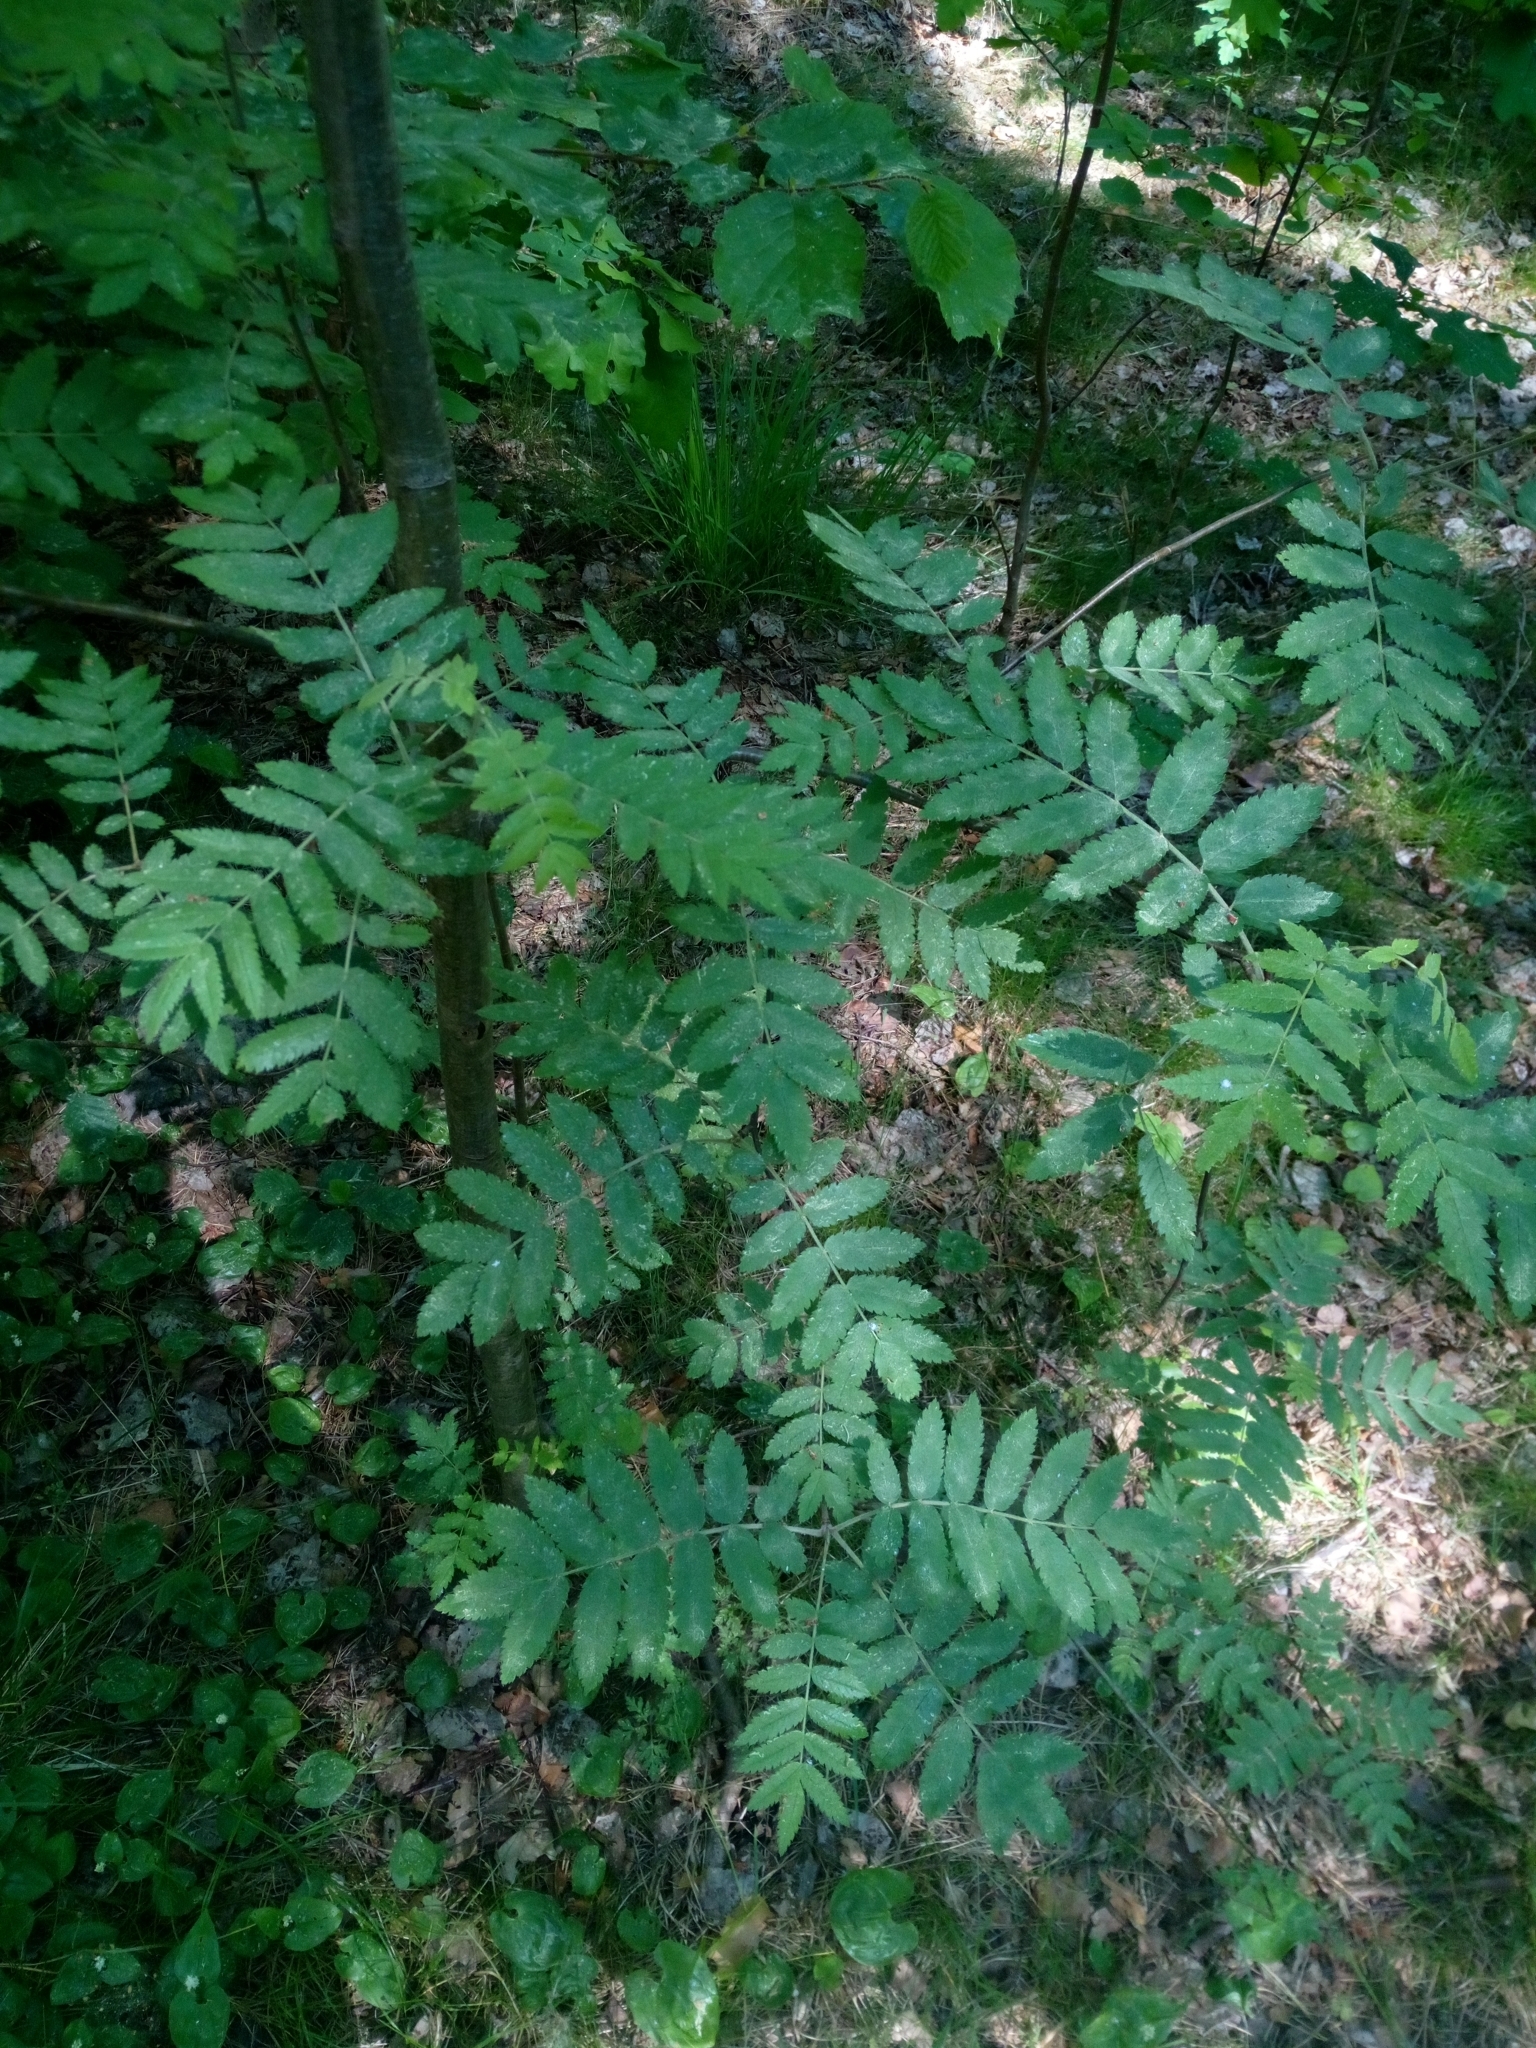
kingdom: Plantae
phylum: Tracheophyta
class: Magnoliopsida
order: Rosales
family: Rosaceae
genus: Sorbus
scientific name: Sorbus aucuparia
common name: Rowan
